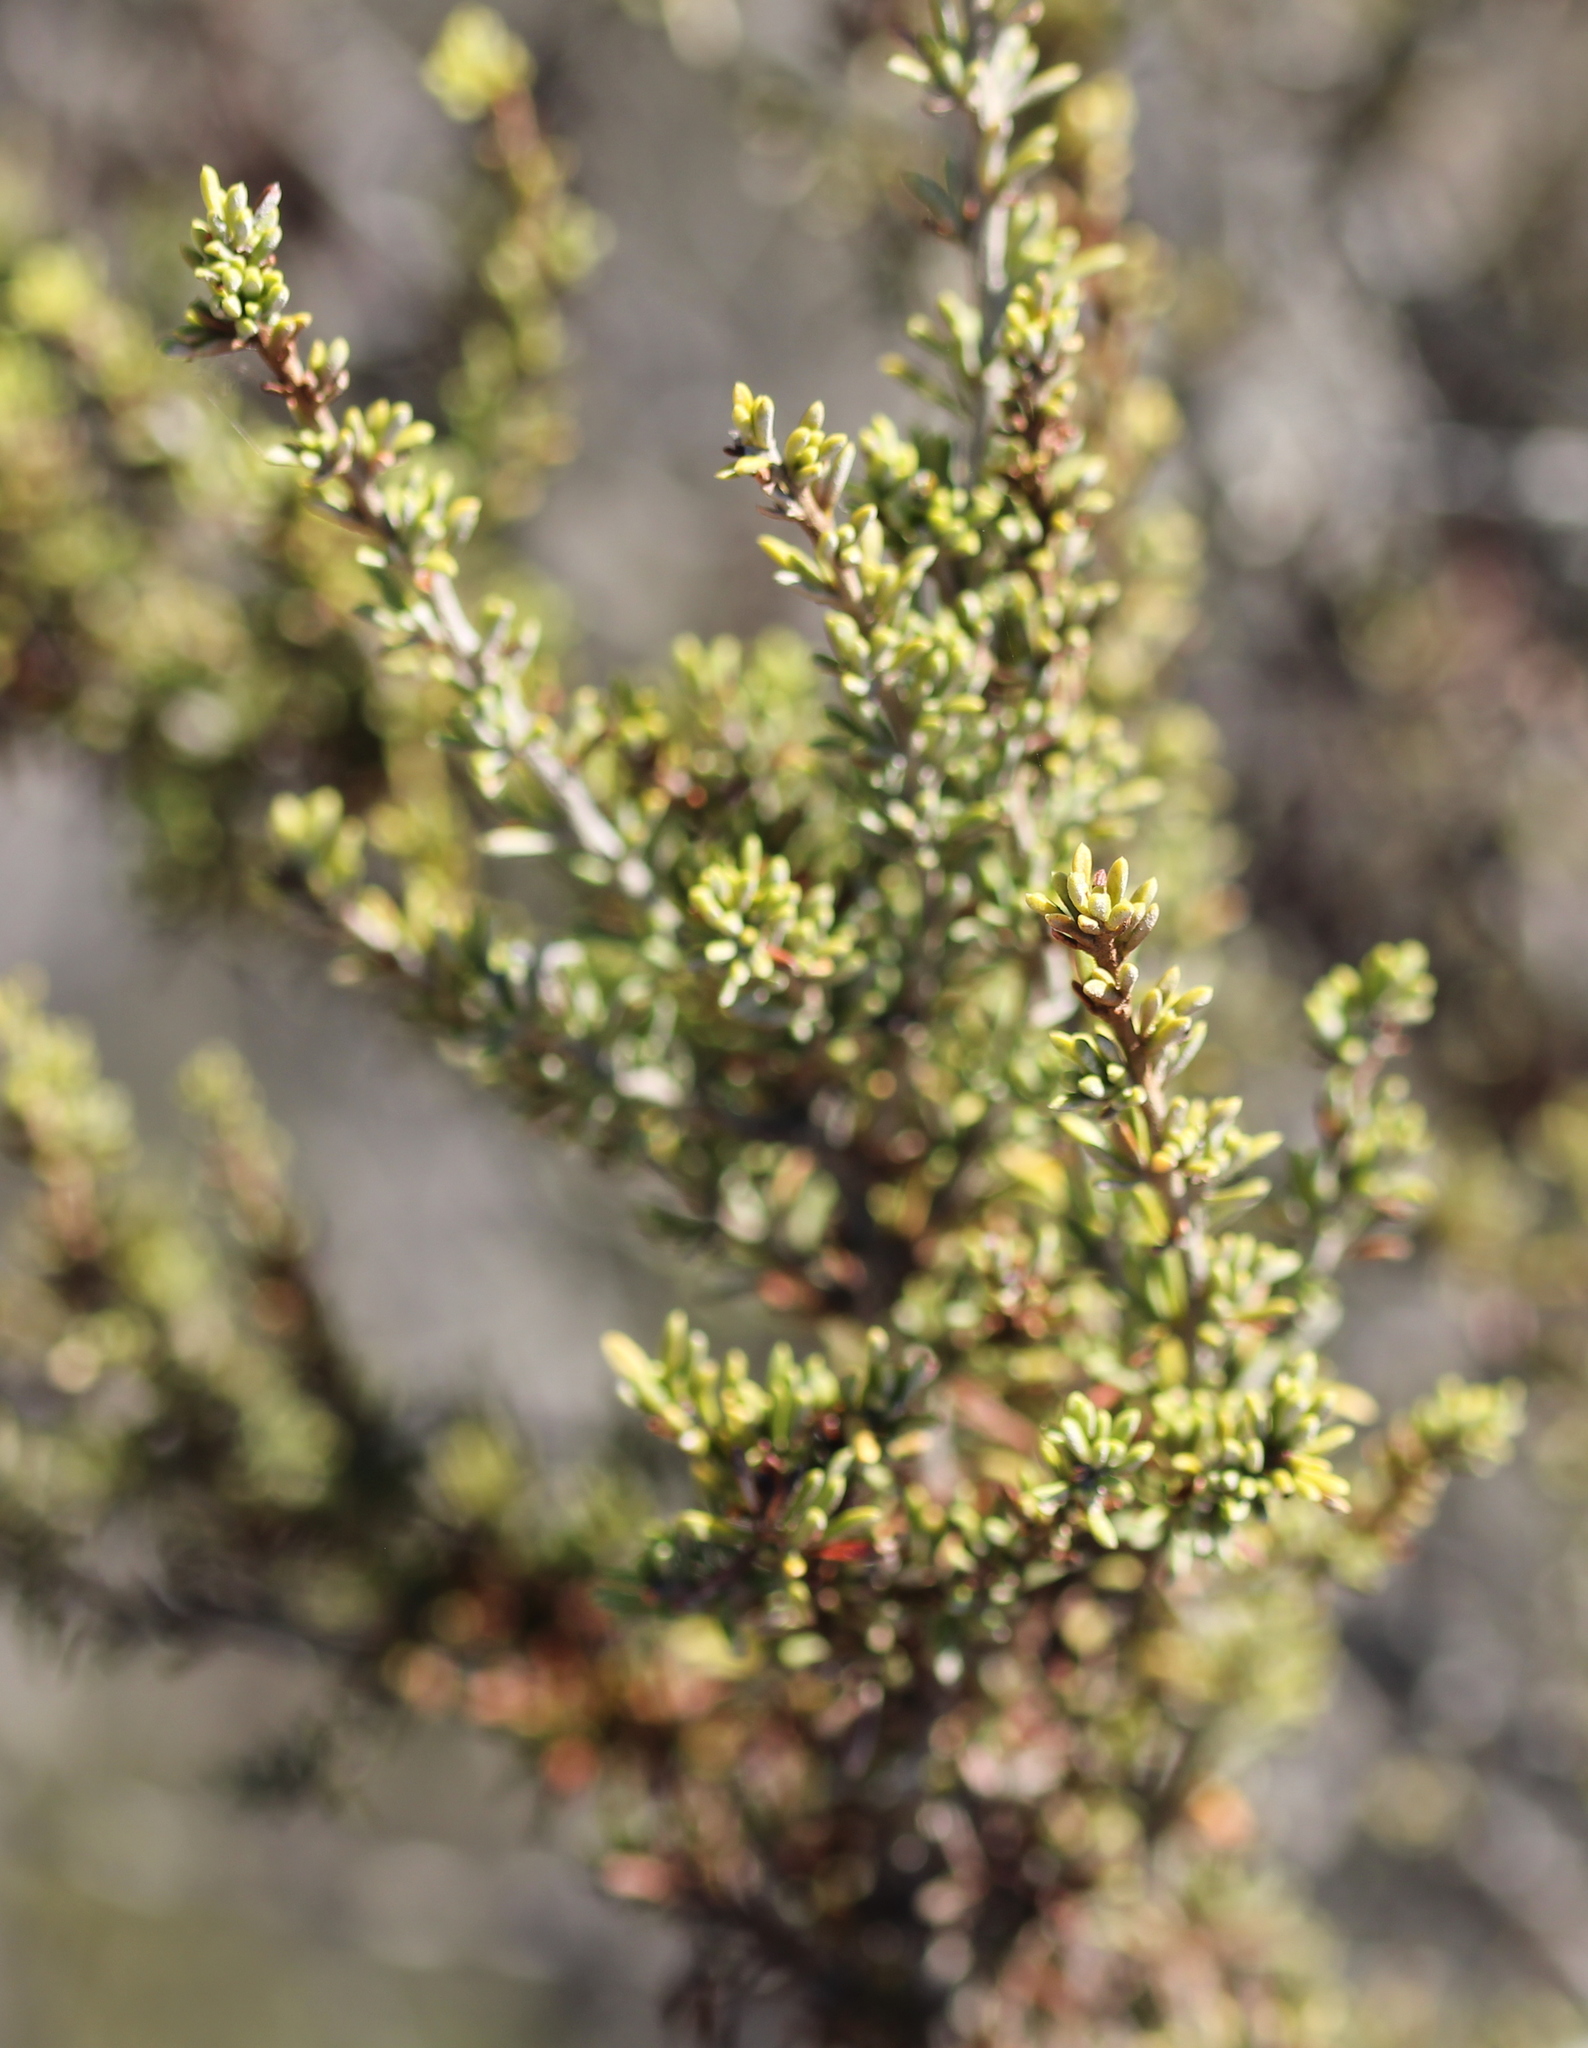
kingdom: Plantae
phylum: Tracheophyta
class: Magnoliopsida
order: Rosales
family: Rosaceae
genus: Adenostoma
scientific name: Adenostoma fasciculatum
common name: Chamise
